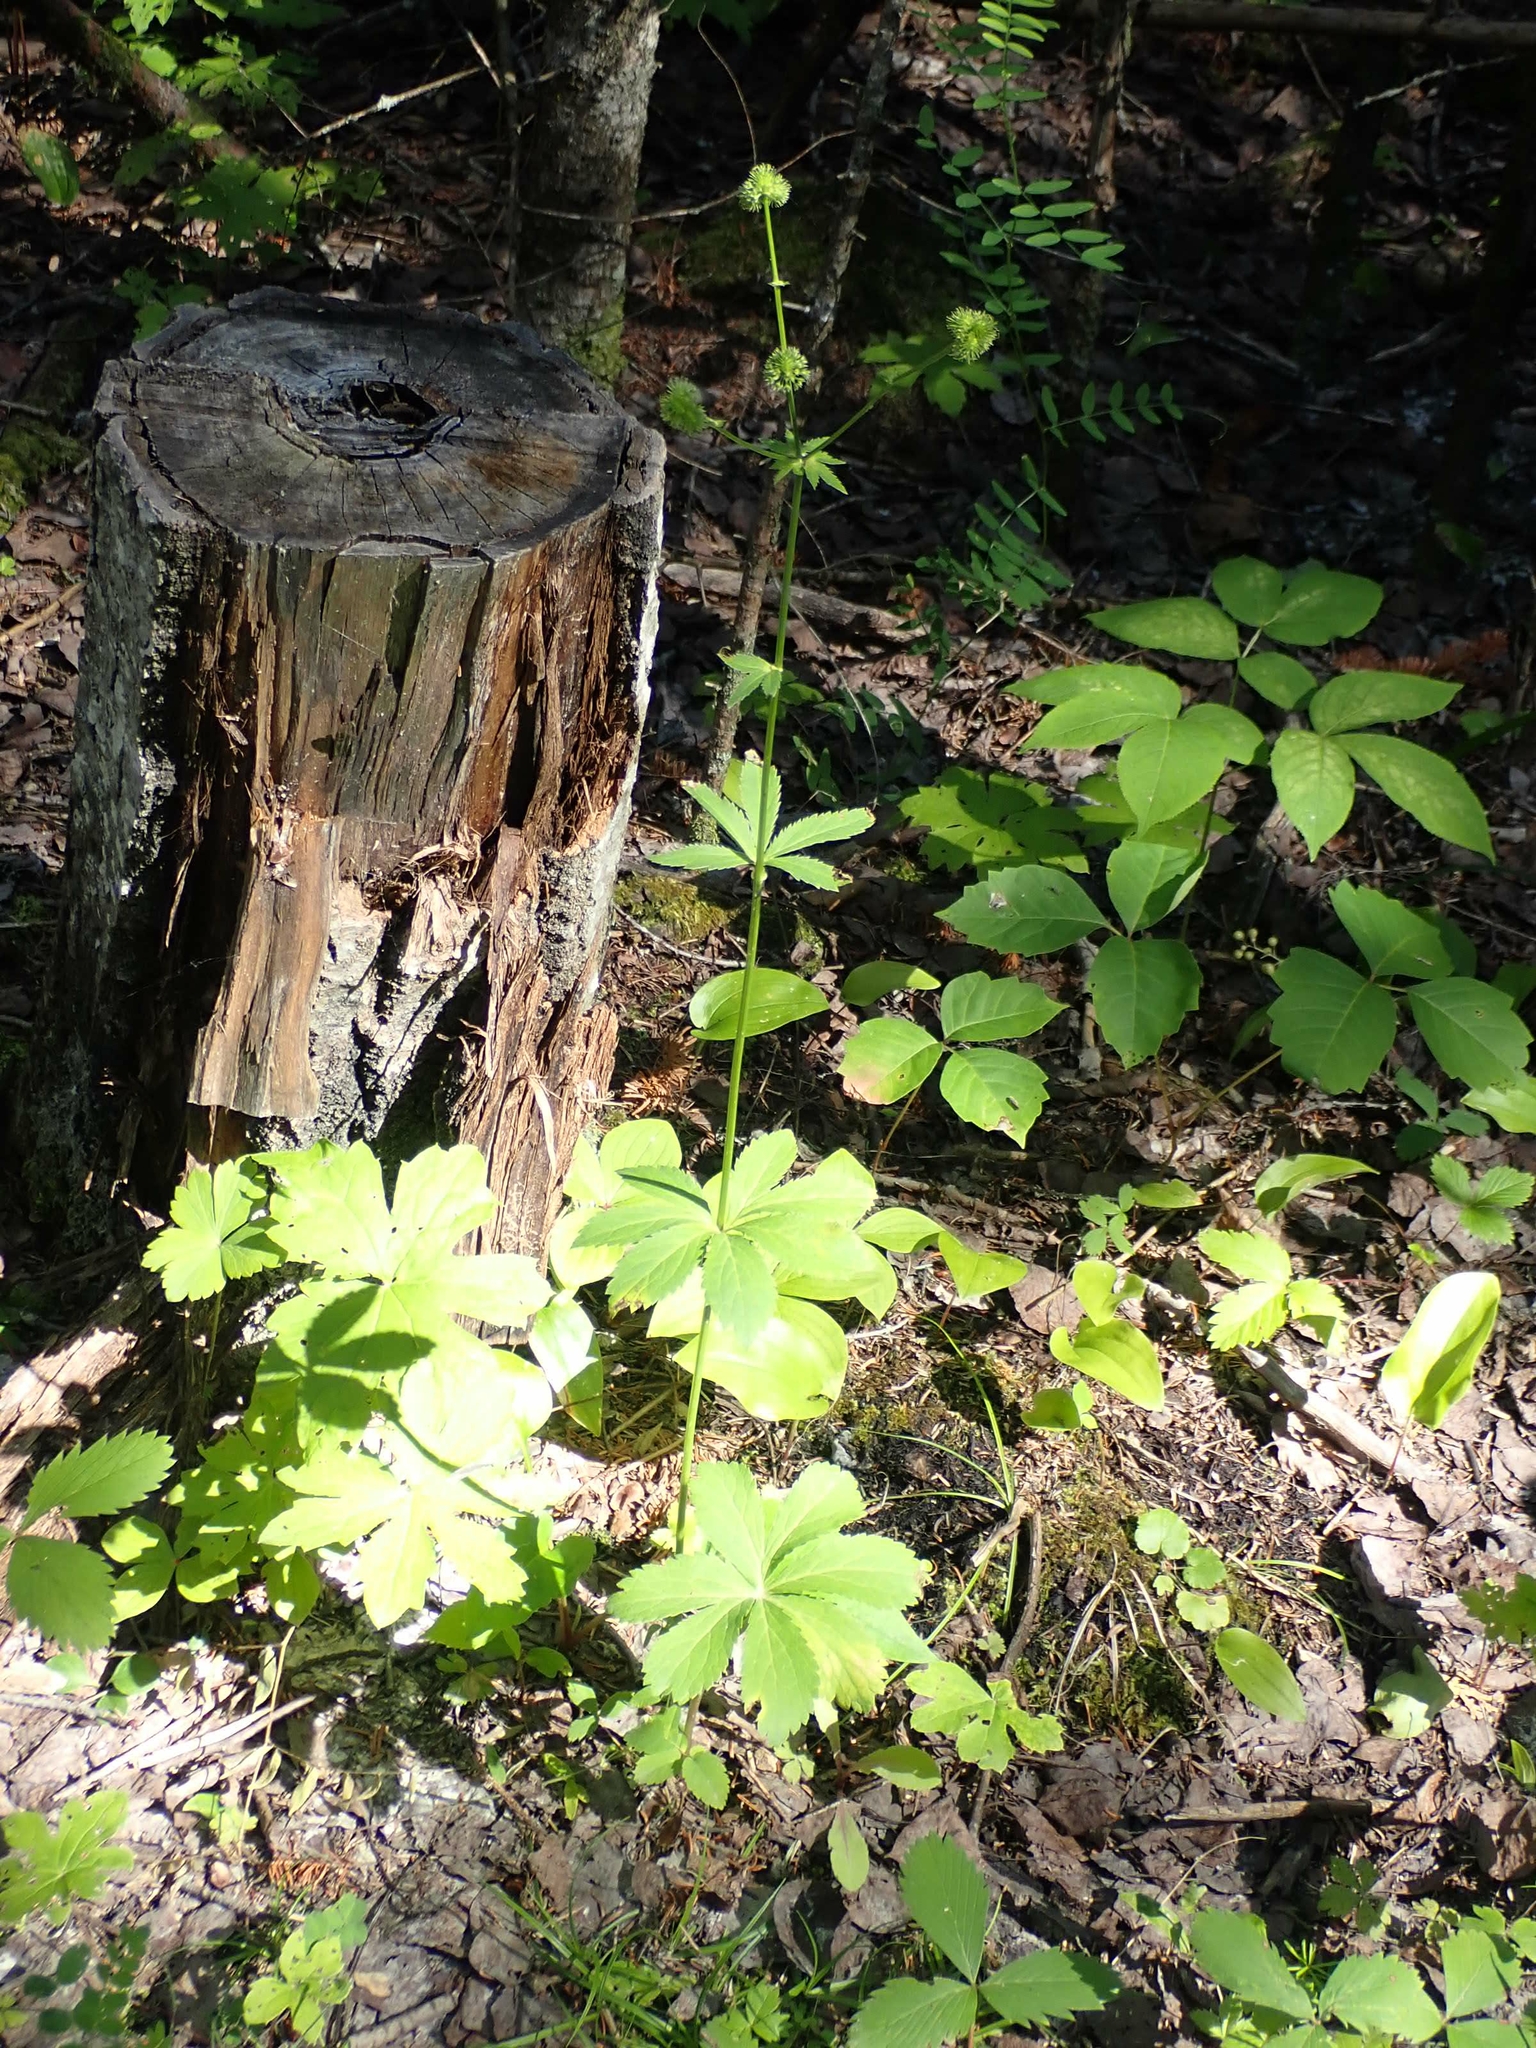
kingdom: Plantae
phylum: Tracheophyta
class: Magnoliopsida
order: Apiales
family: Apiaceae
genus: Sanicula
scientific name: Sanicula marilandica
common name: Black snakeroot
